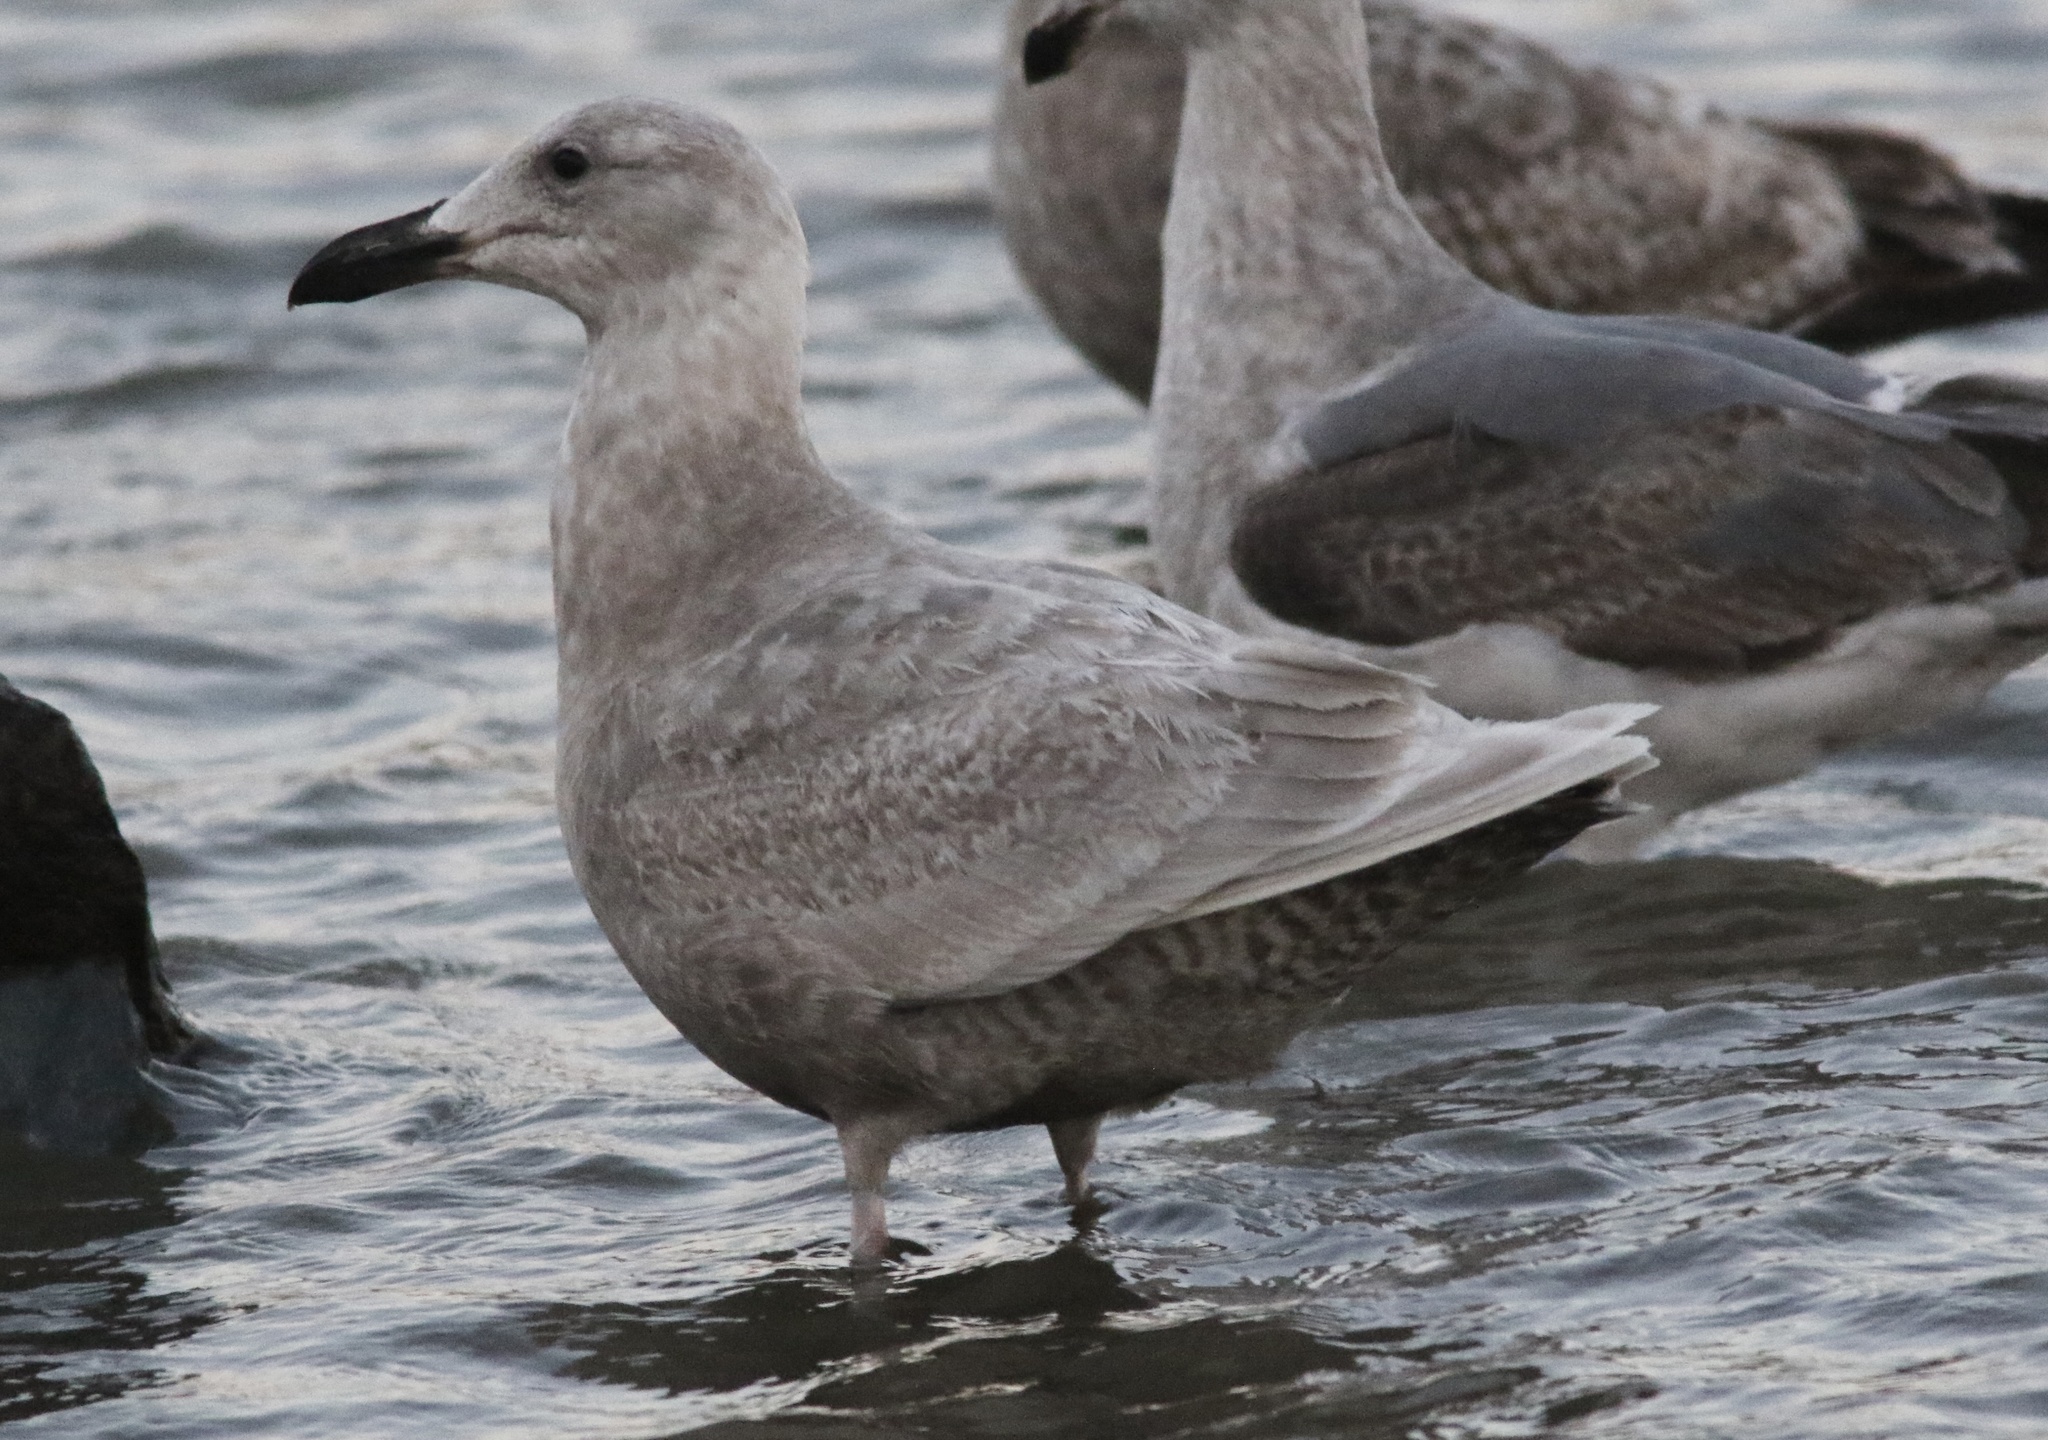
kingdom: Animalia
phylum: Chordata
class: Aves
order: Charadriiformes
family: Laridae
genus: Larus
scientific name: Larus glaucescens
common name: Glaucous-winged gull
